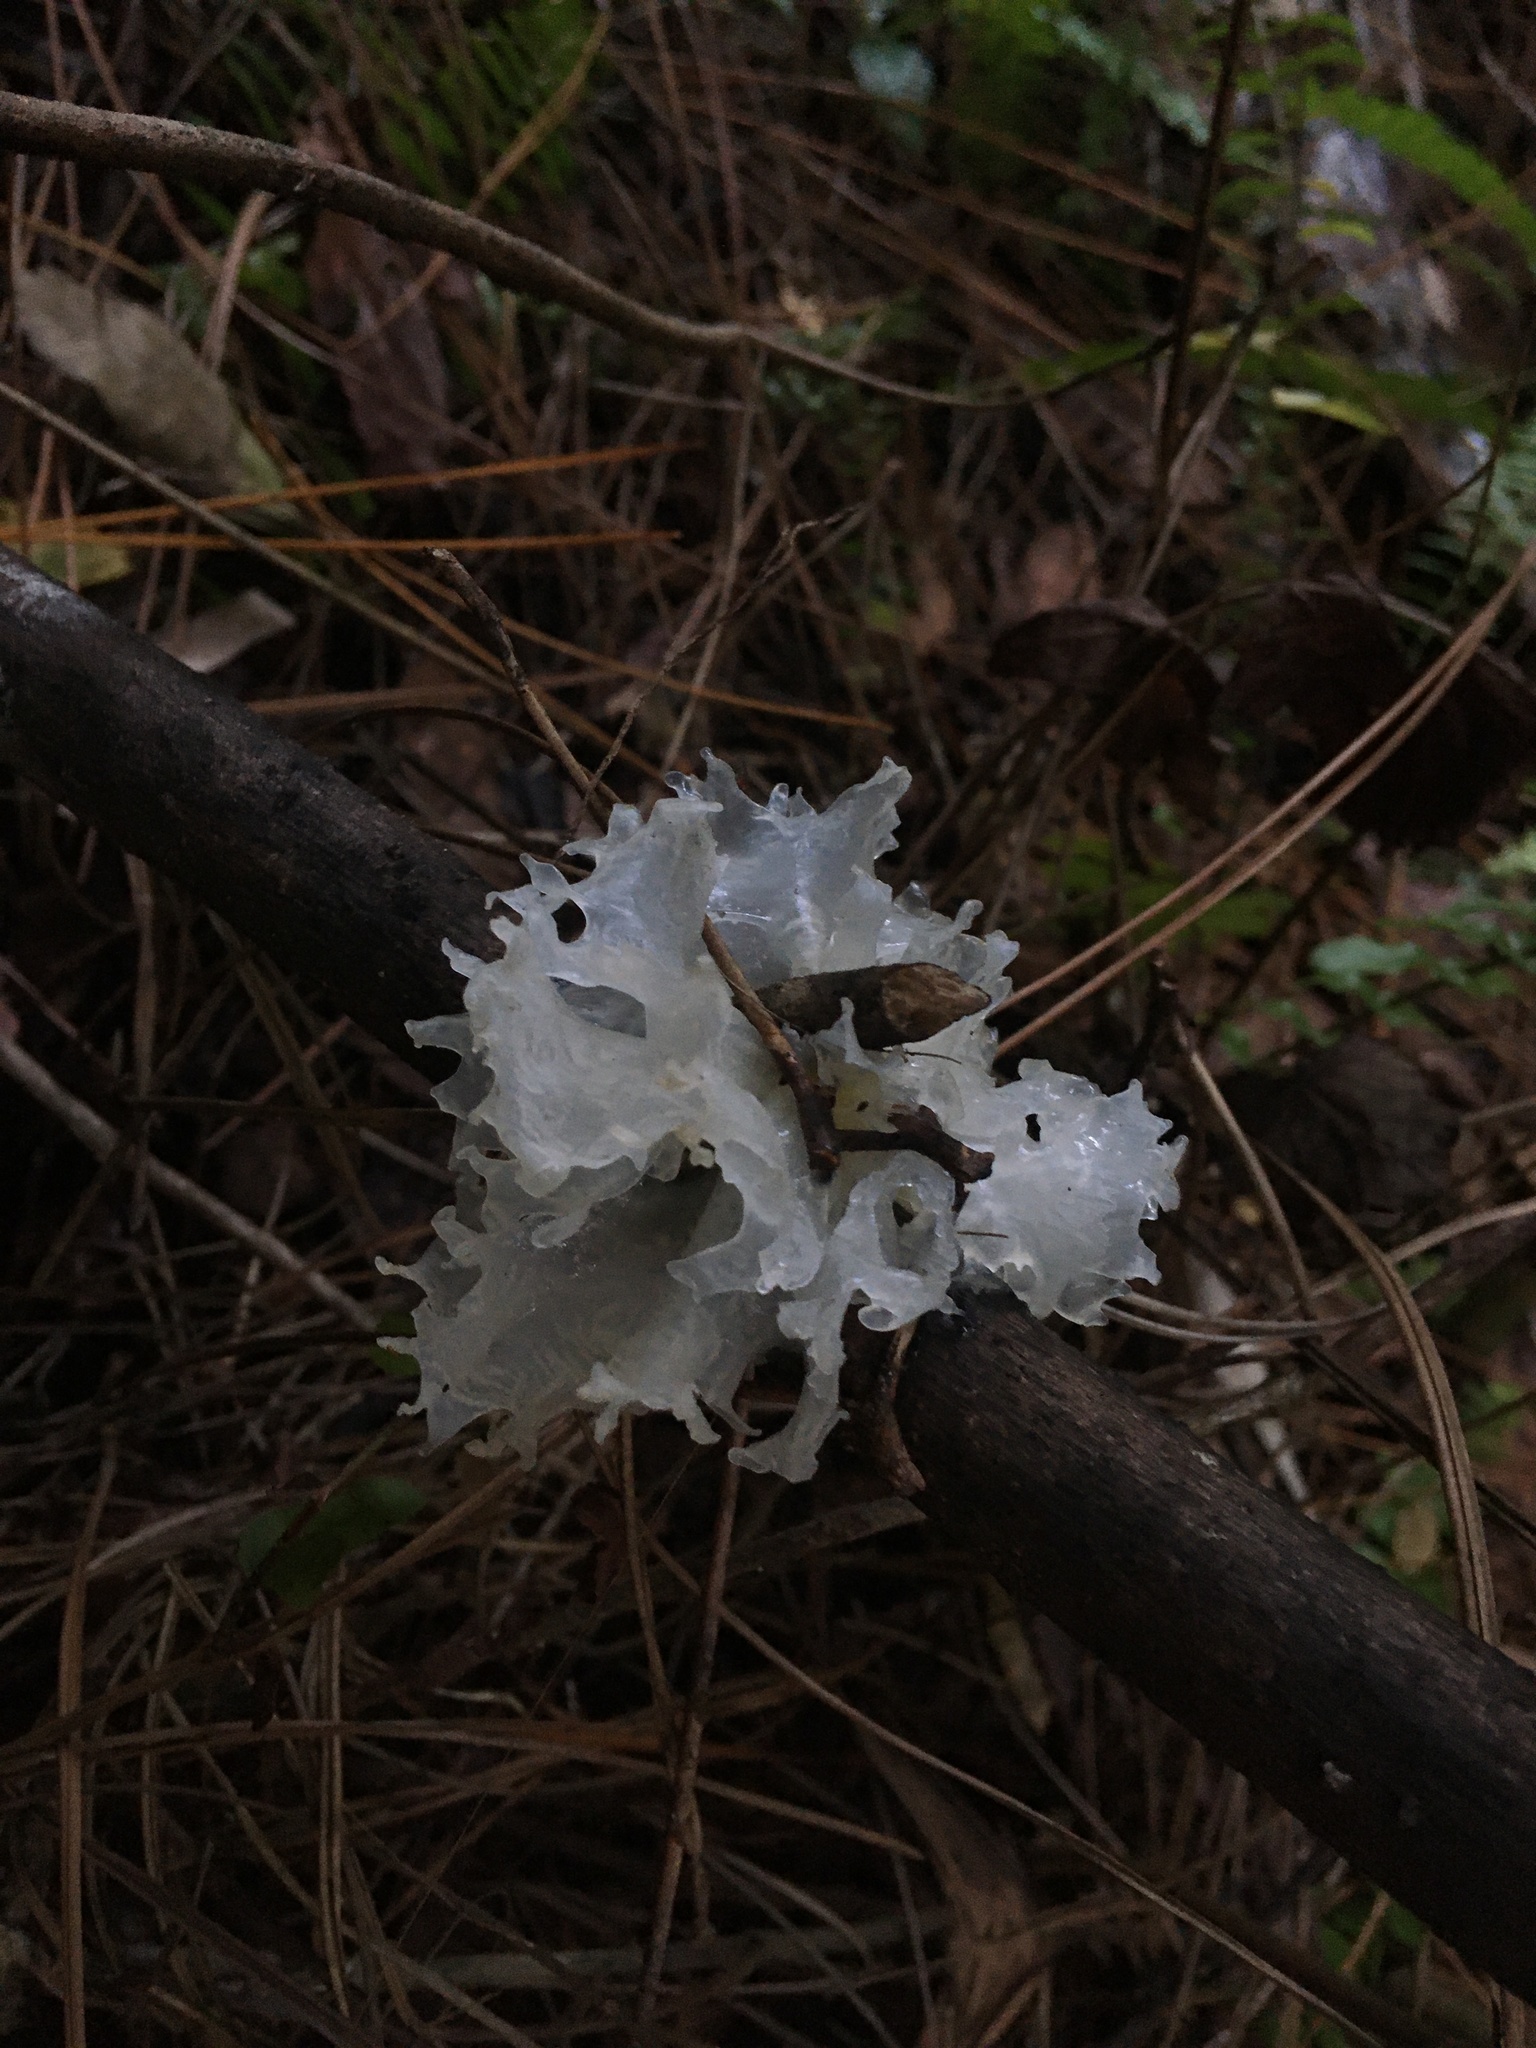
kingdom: Fungi
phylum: Basidiomycota
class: Tremellomycetes
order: Tremellales
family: Tremellaceae
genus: Tremella
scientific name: Tremella fuciformis
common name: Snow fungus
